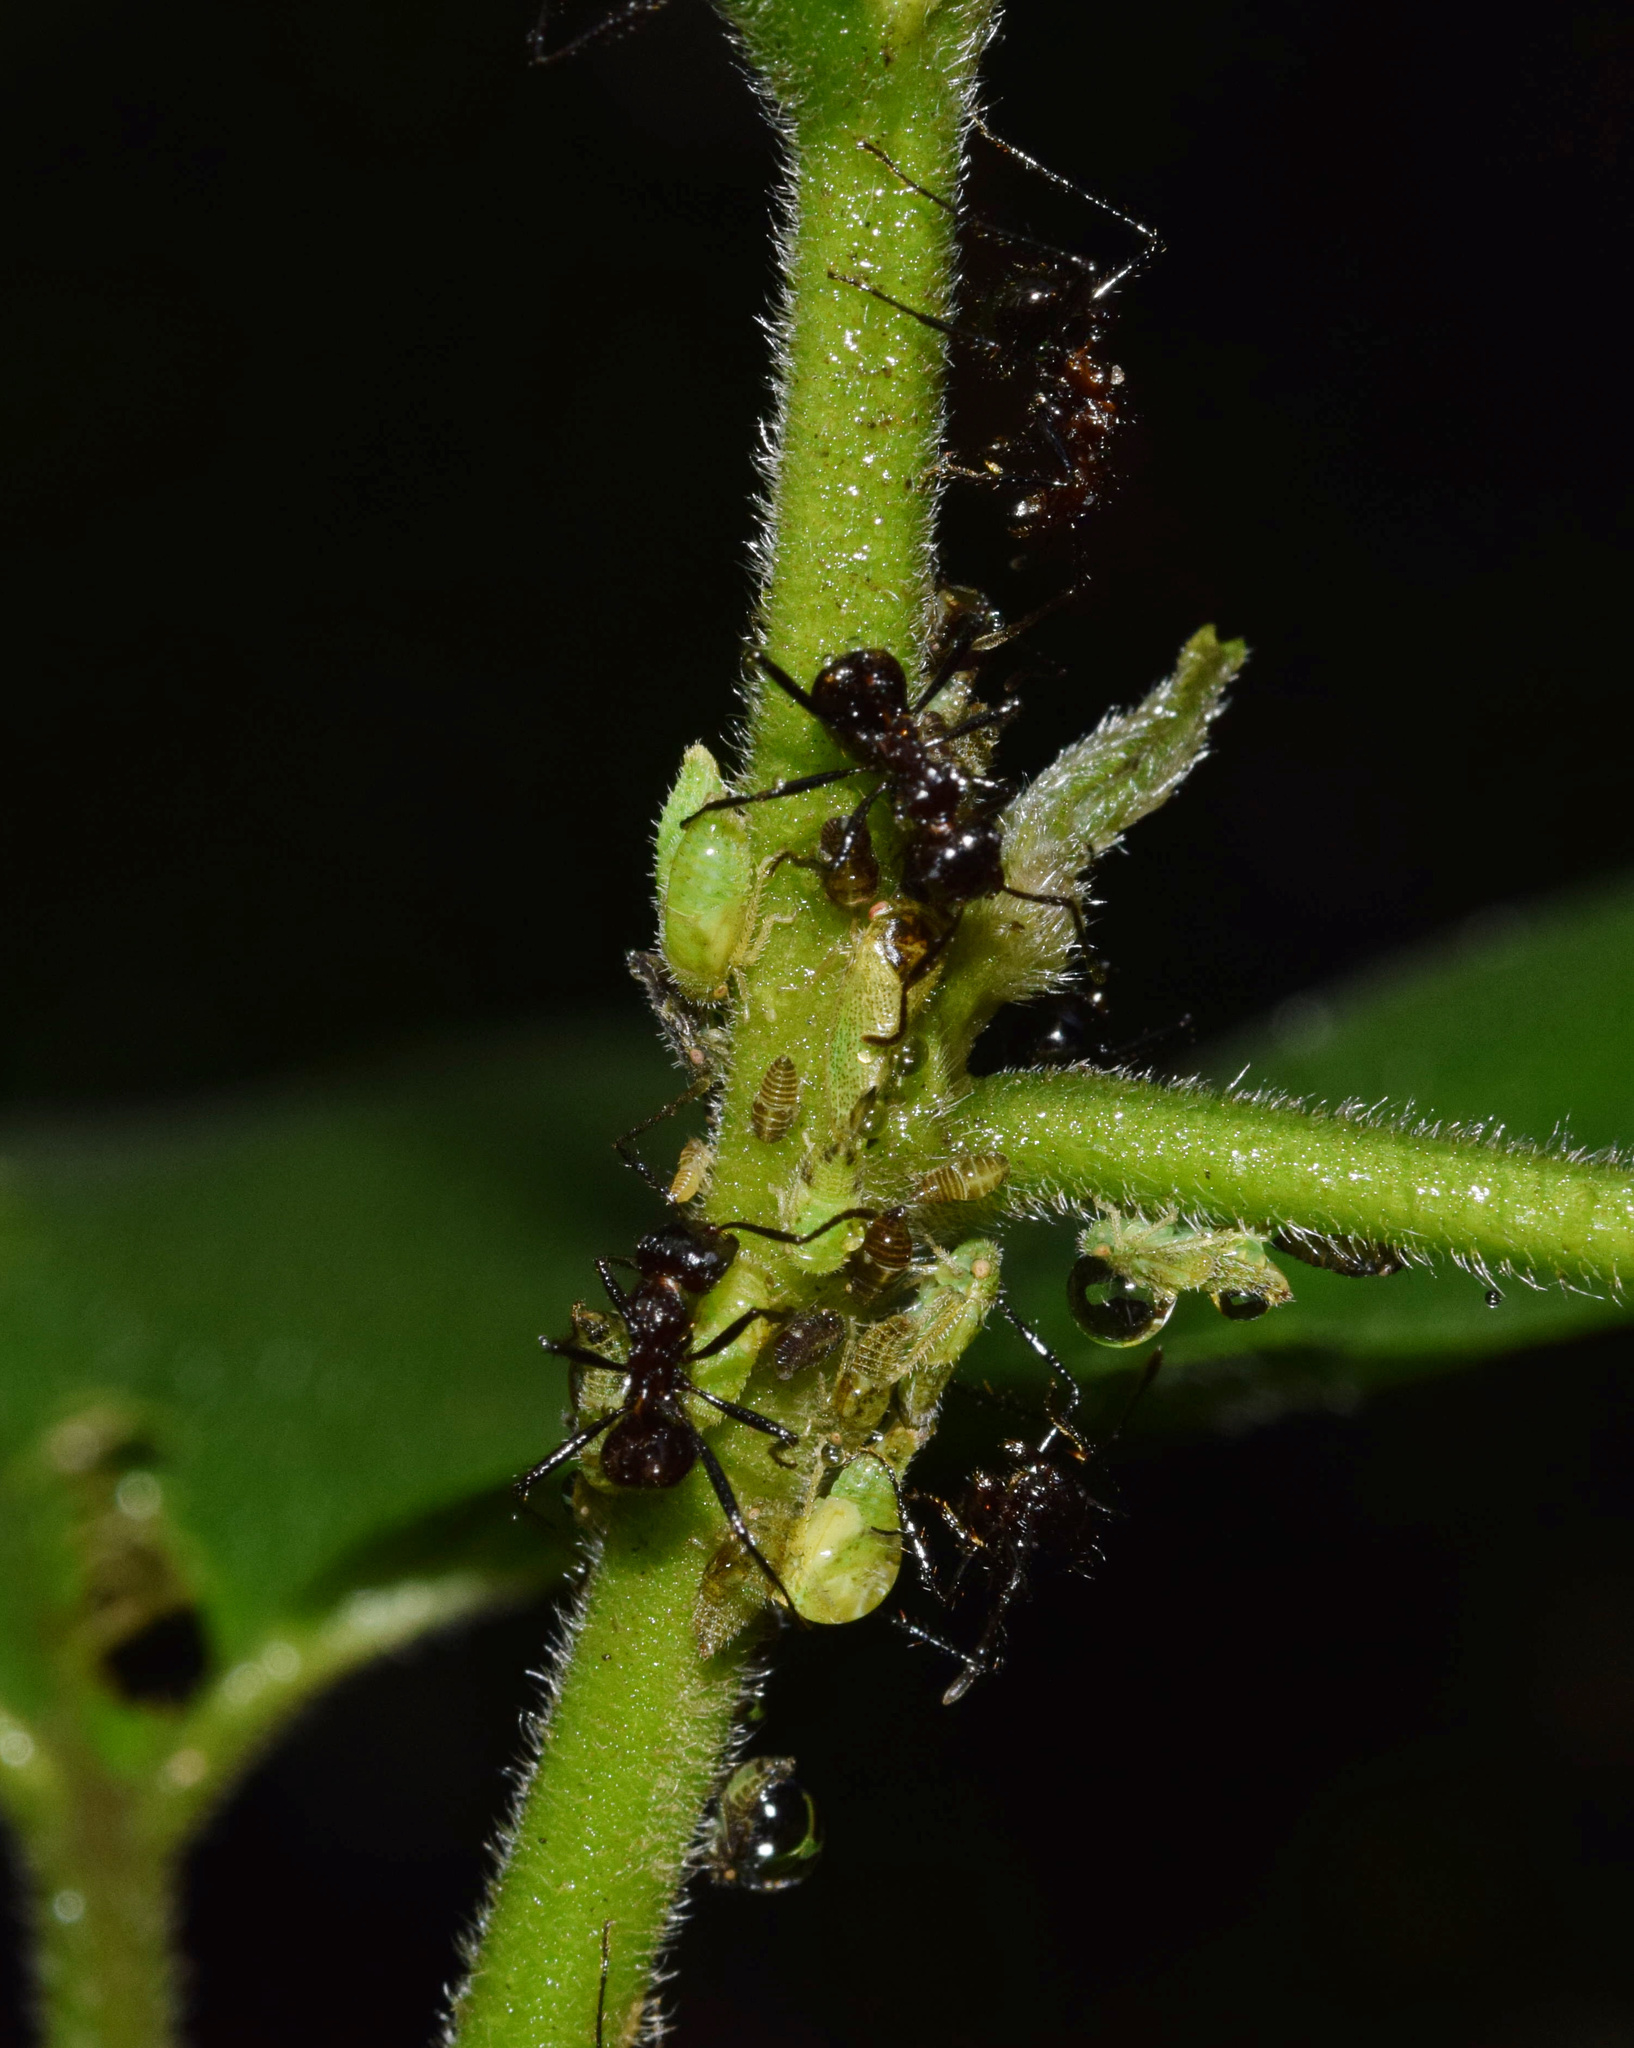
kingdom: Animalia
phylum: Arthropoda
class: Insecta
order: Hymenoptera
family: Formicidae
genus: Myrmicaria
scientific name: Myrmicaria natalensis
